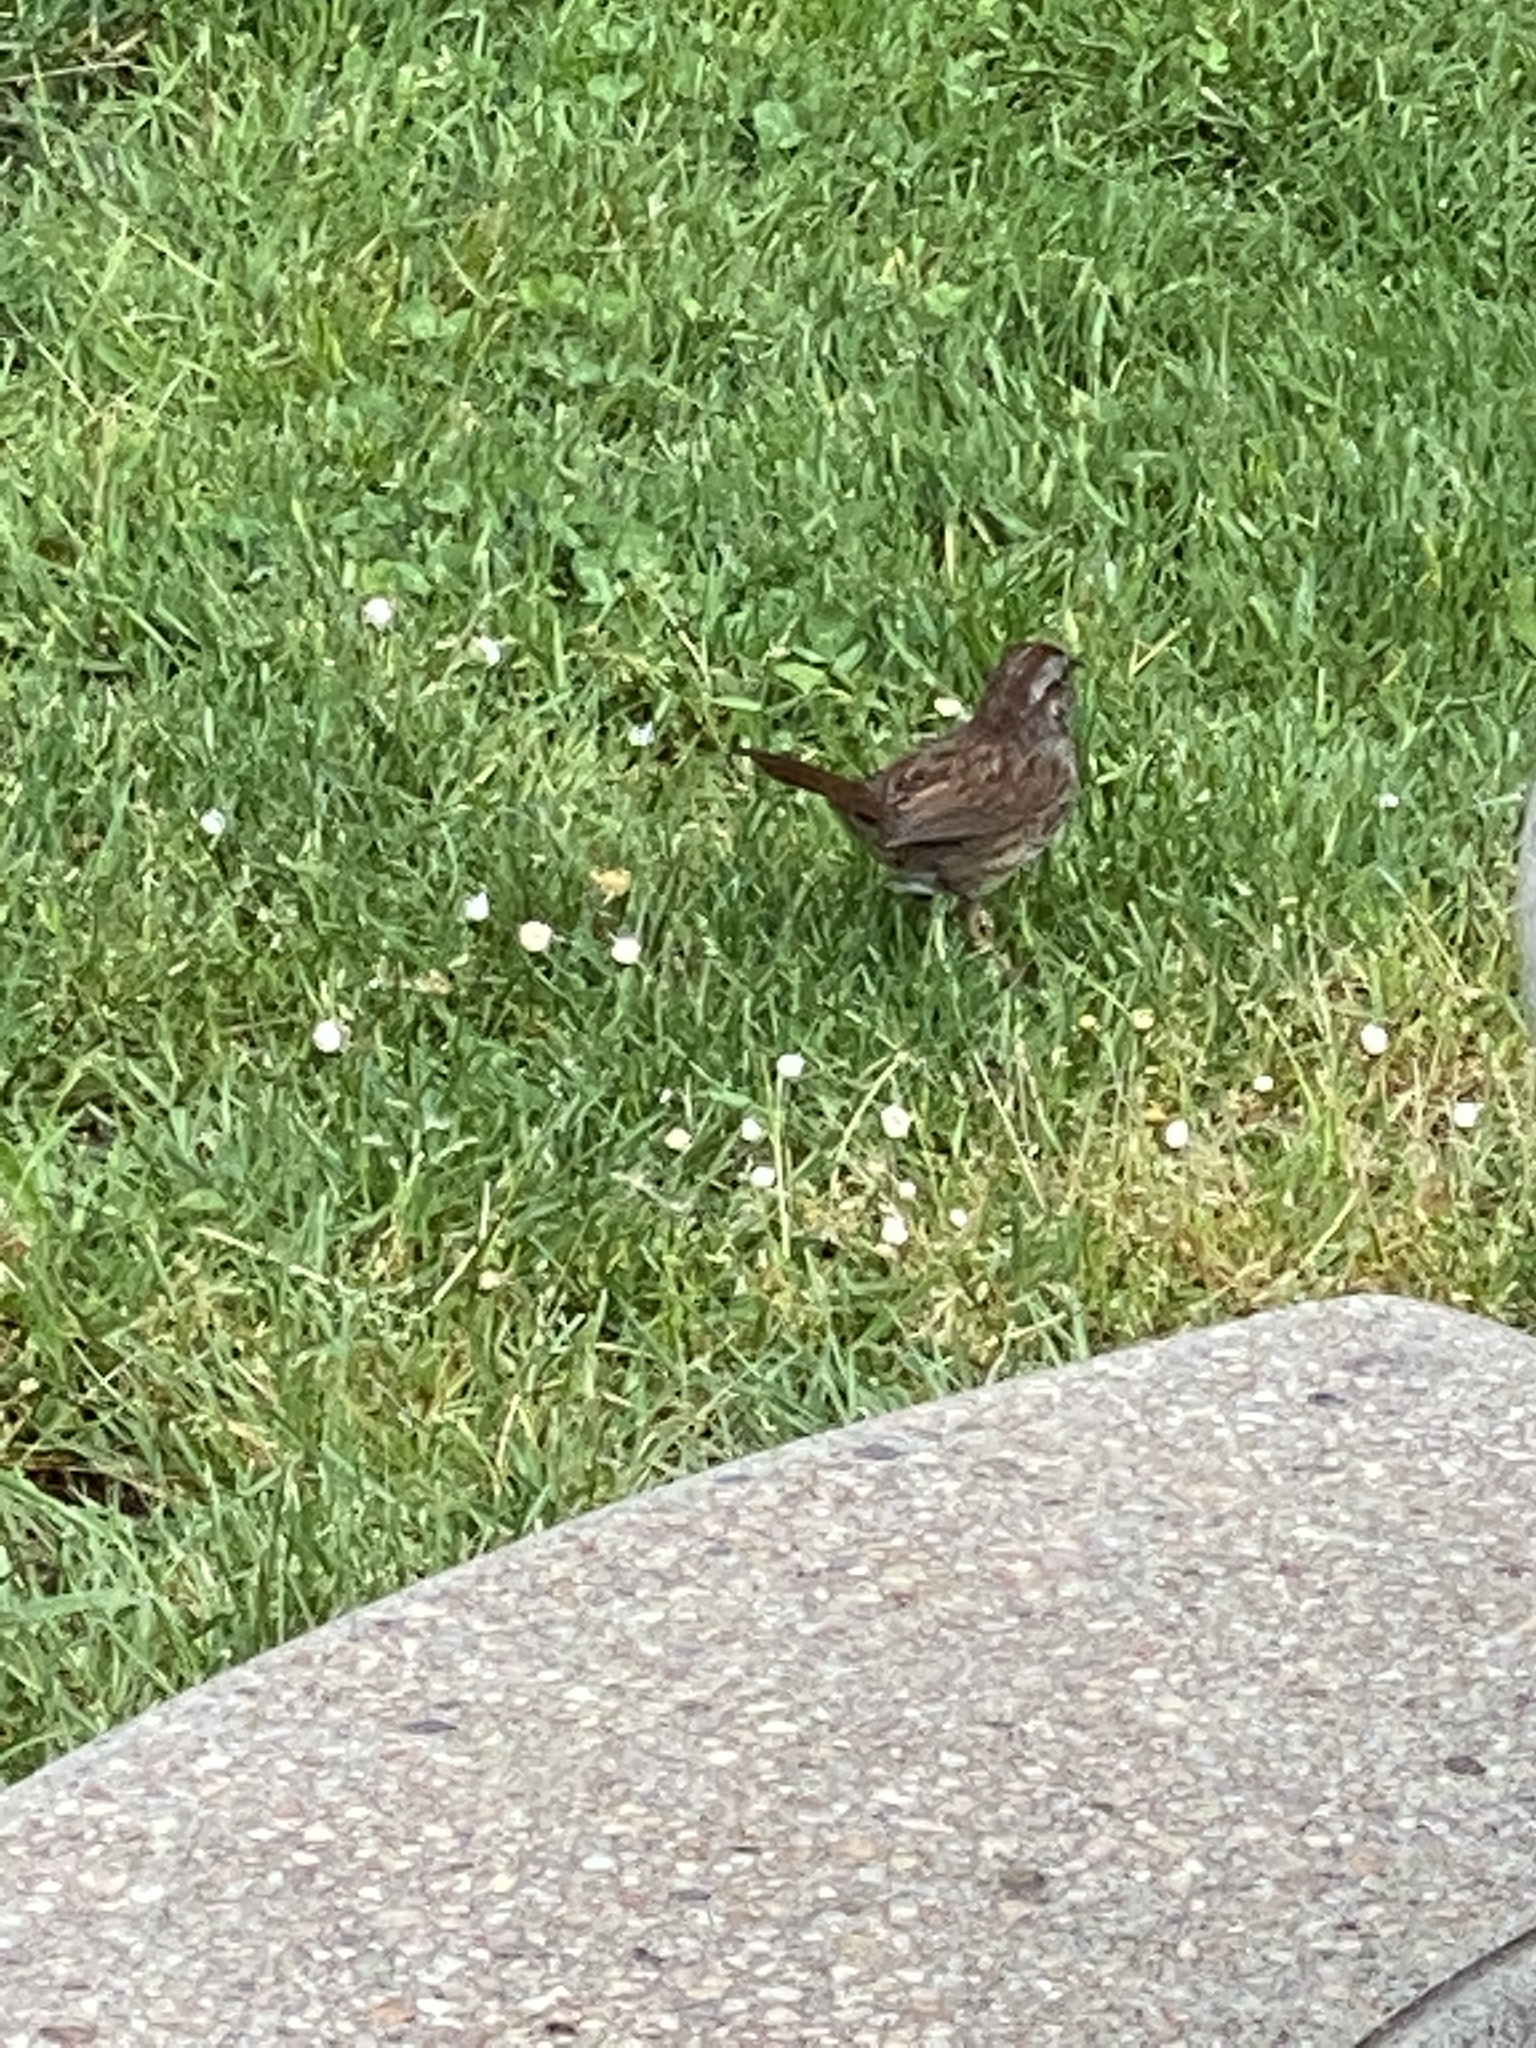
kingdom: Animalia
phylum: Chordata
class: Aves
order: Passeriformes
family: Passerellidae
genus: Melospiza
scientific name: Melospiza melodia
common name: Song sparrow
